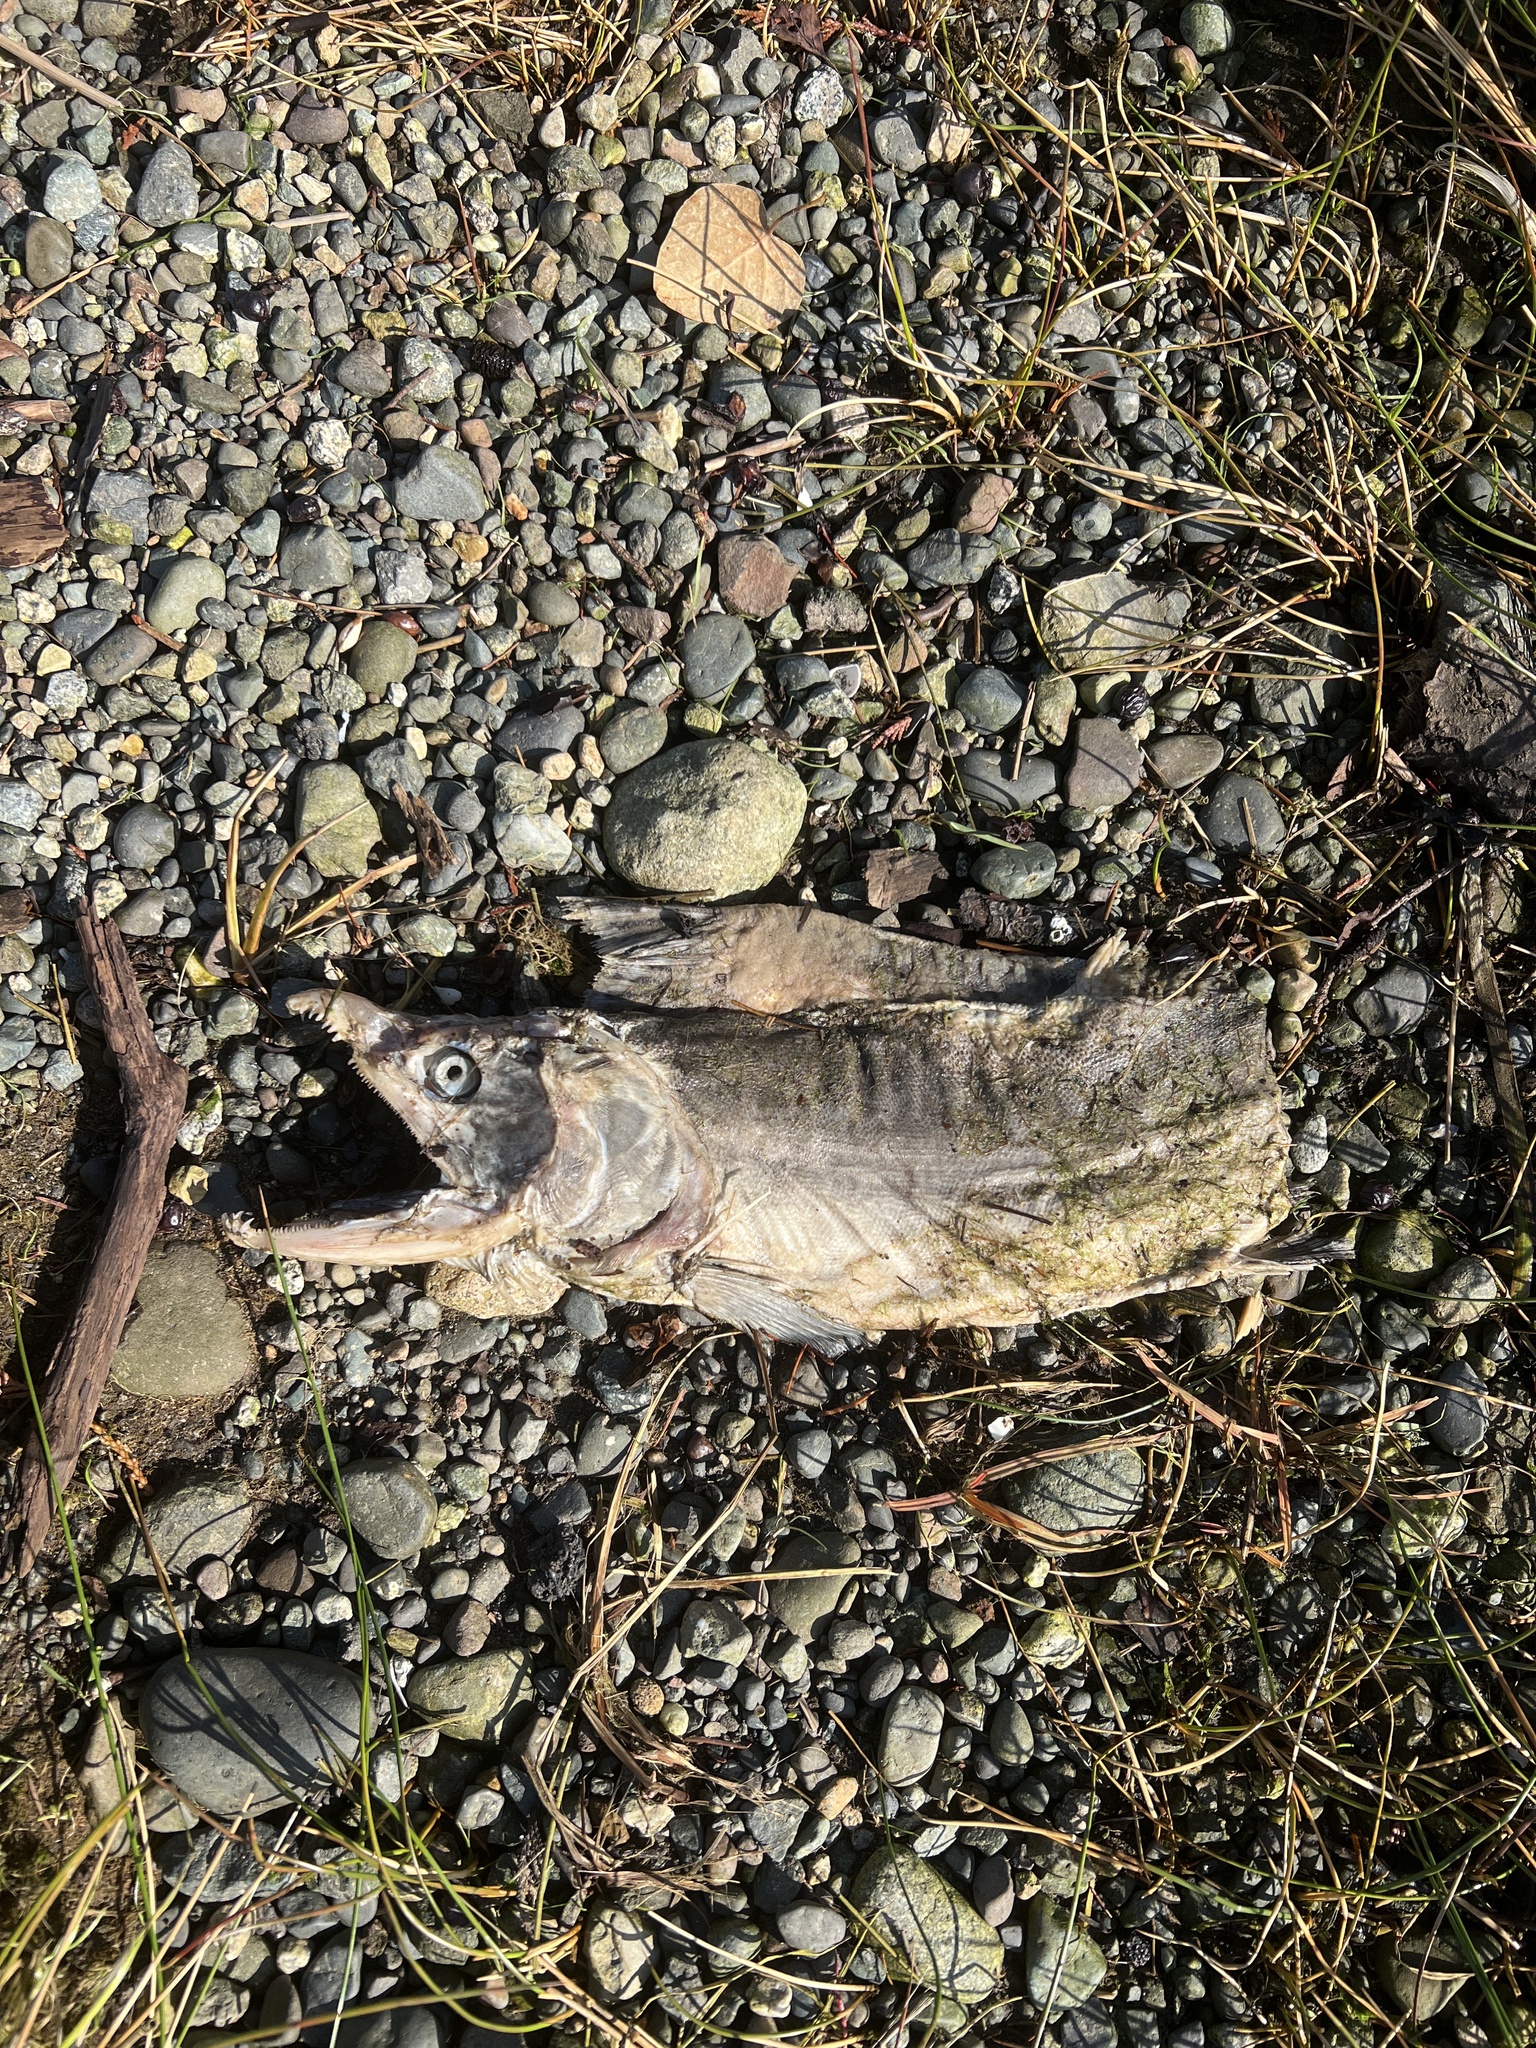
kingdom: Animalia
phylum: Chordata
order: Salmoniformes
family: Salmonidae
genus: Oncorhynchus
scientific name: Oncorhynchus gorbuscha
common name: Humpback salmon
